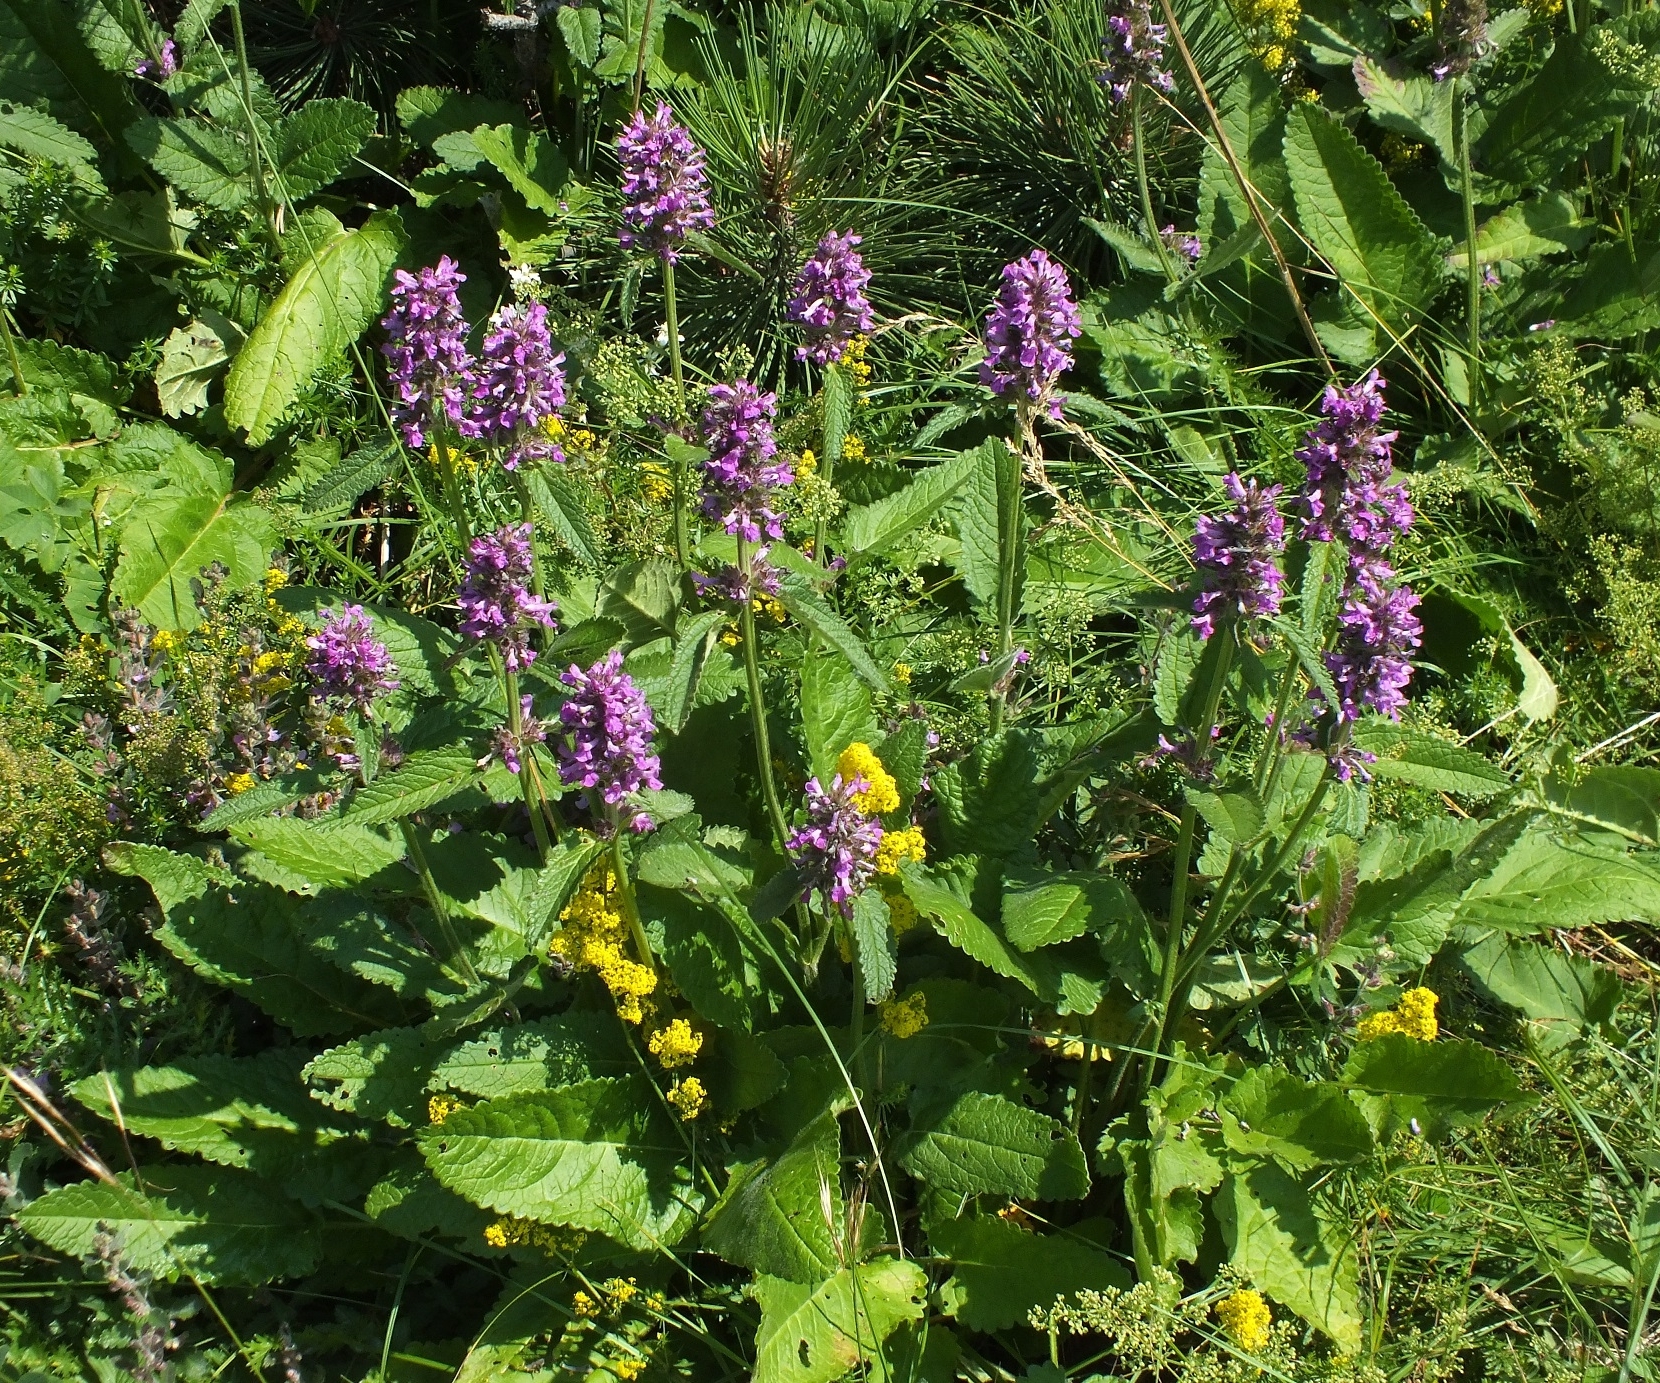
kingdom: Plantae
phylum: Tracheophyta
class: Magnoliopsida
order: Lamiales
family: Lamiaceae
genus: Betonica
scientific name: Betonica officinalis
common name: Bishop's-wort
